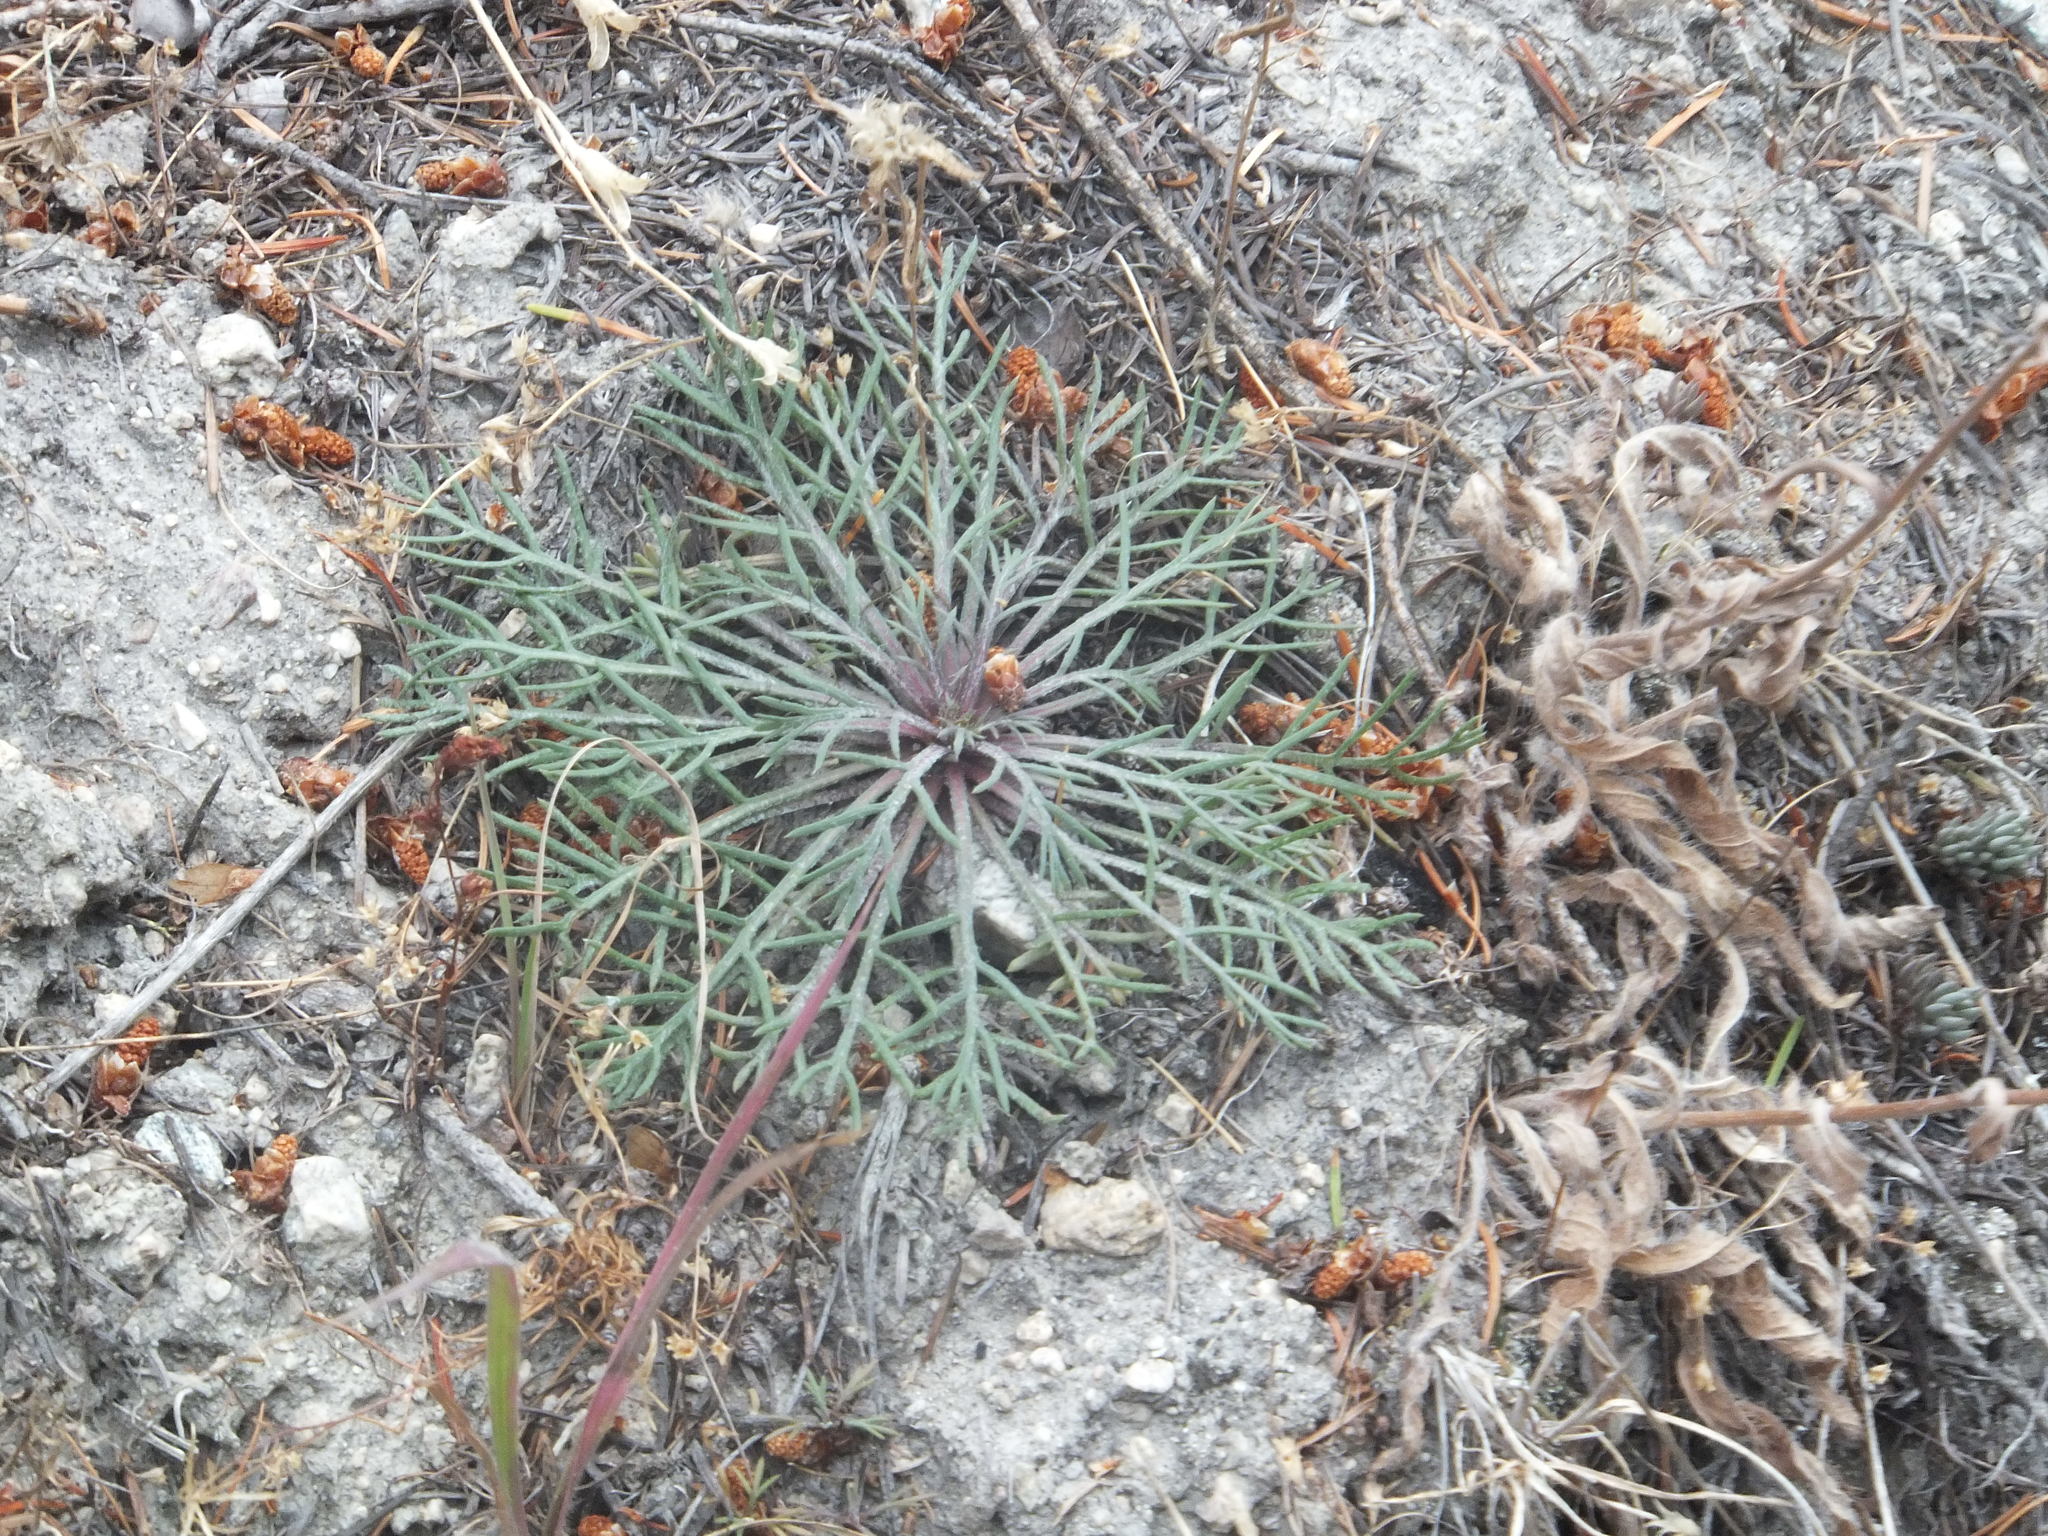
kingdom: Plantae
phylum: Tracheophyta
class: Magnoliopsida
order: Ericales
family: Polemoniaceae
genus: Ipomopsis
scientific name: Ipomopsis aggregata
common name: Scarlet gilia
